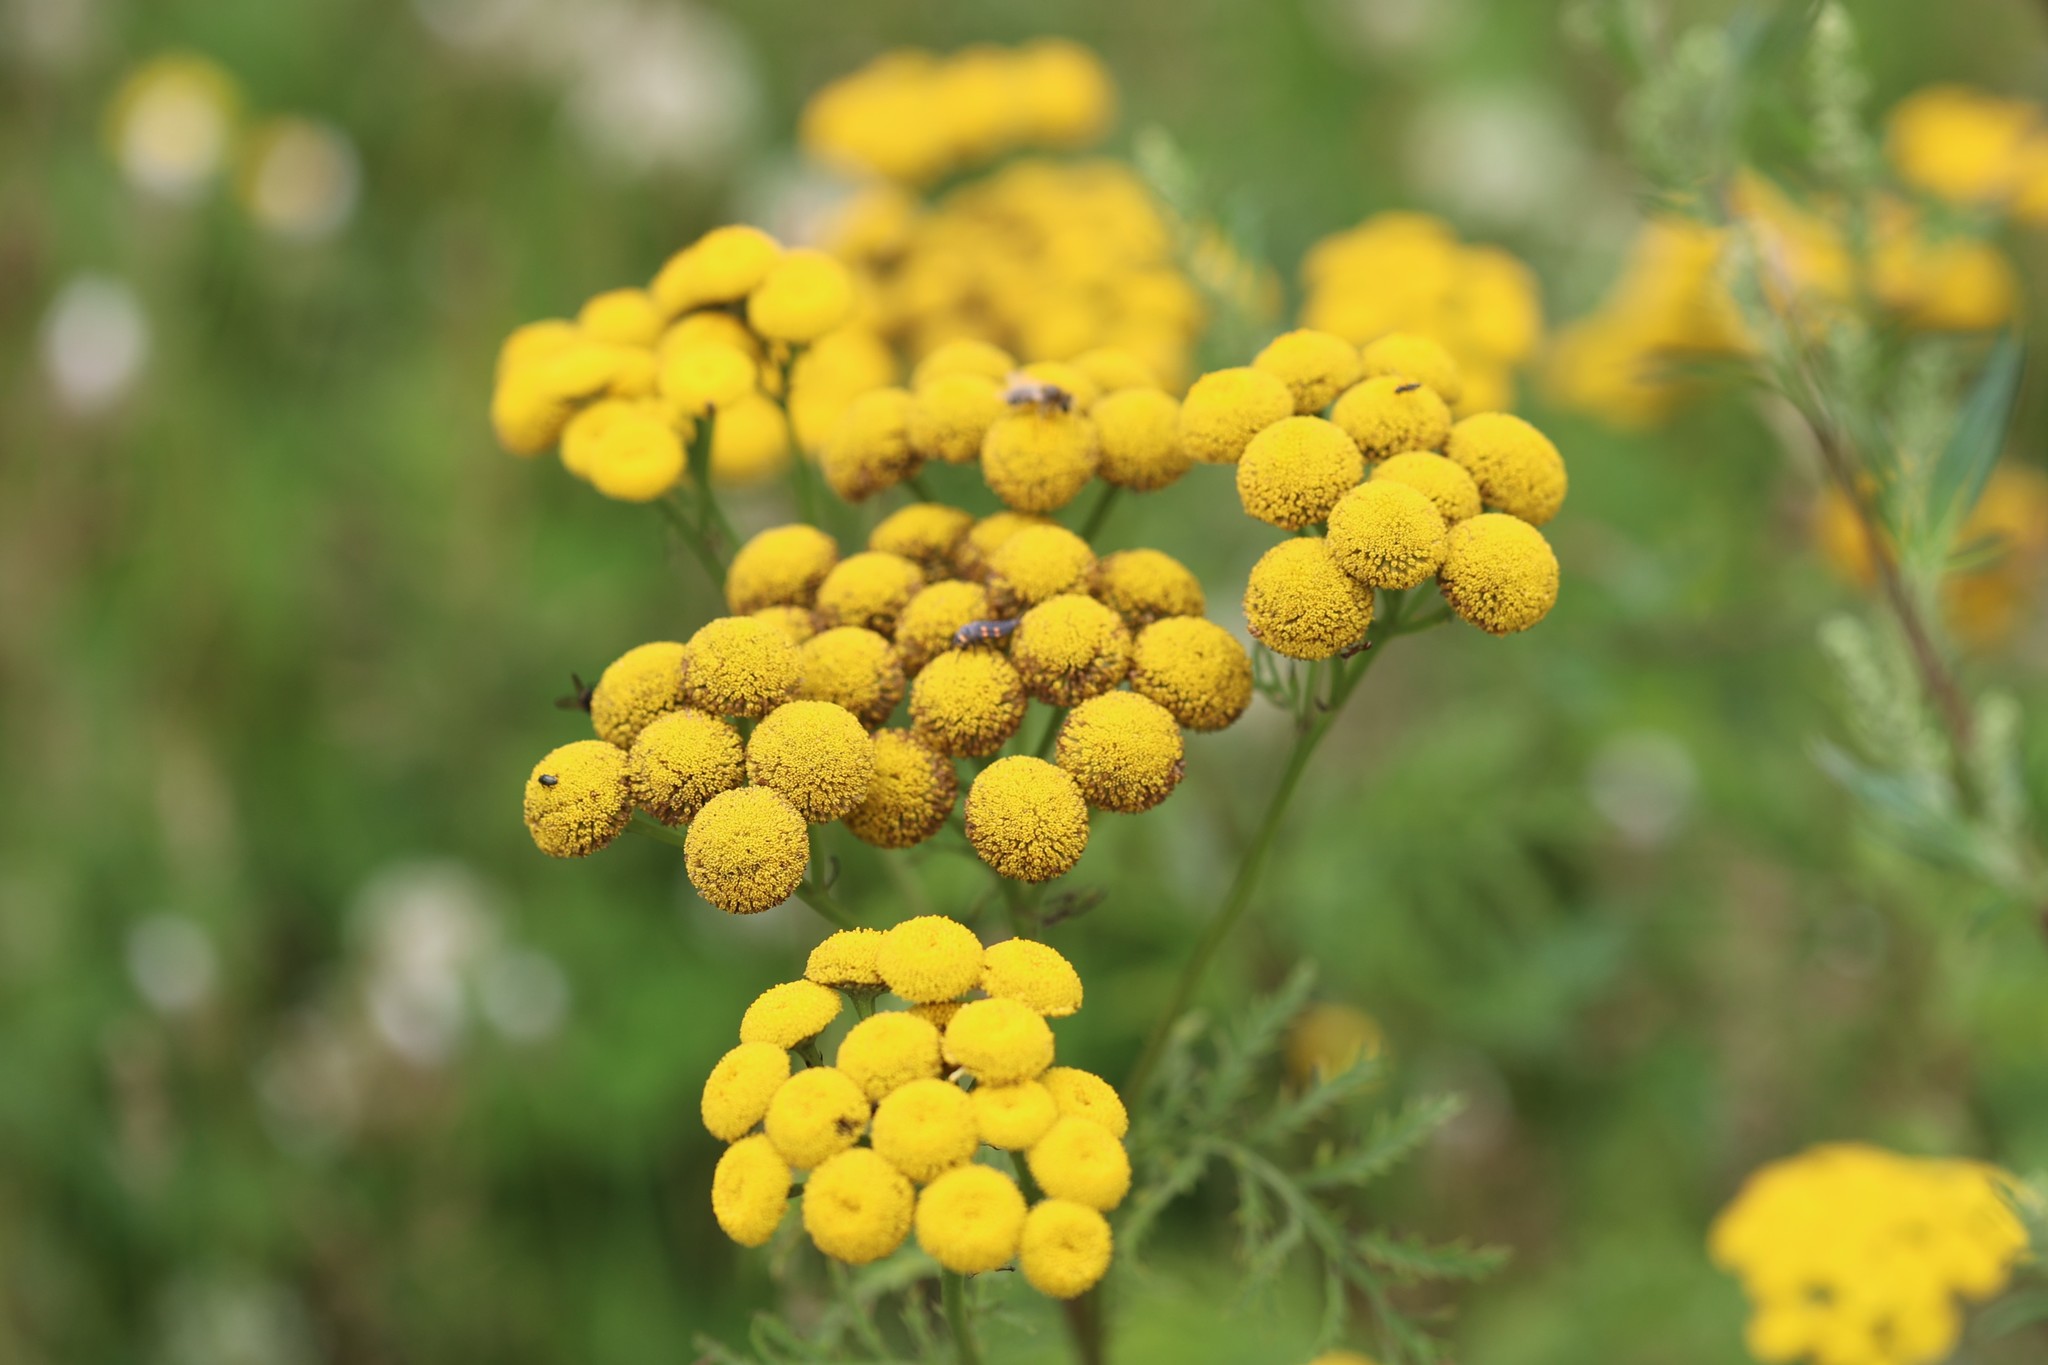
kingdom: Plantae
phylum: Tracheophyta
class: Magnoliopsida
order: Asterales
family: Asteraceae
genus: Tanacetum
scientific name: Tanacetum vulgare
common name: Common tansy
